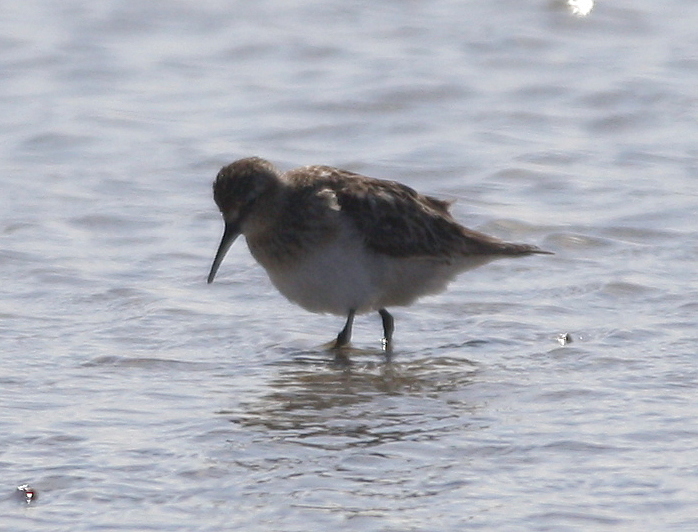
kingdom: Animalia
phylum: Chordata
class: Aves
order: Charadriiformes
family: Scolopacidae
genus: Calidris
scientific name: Calidris bairdii
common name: Baird's sandpiper
